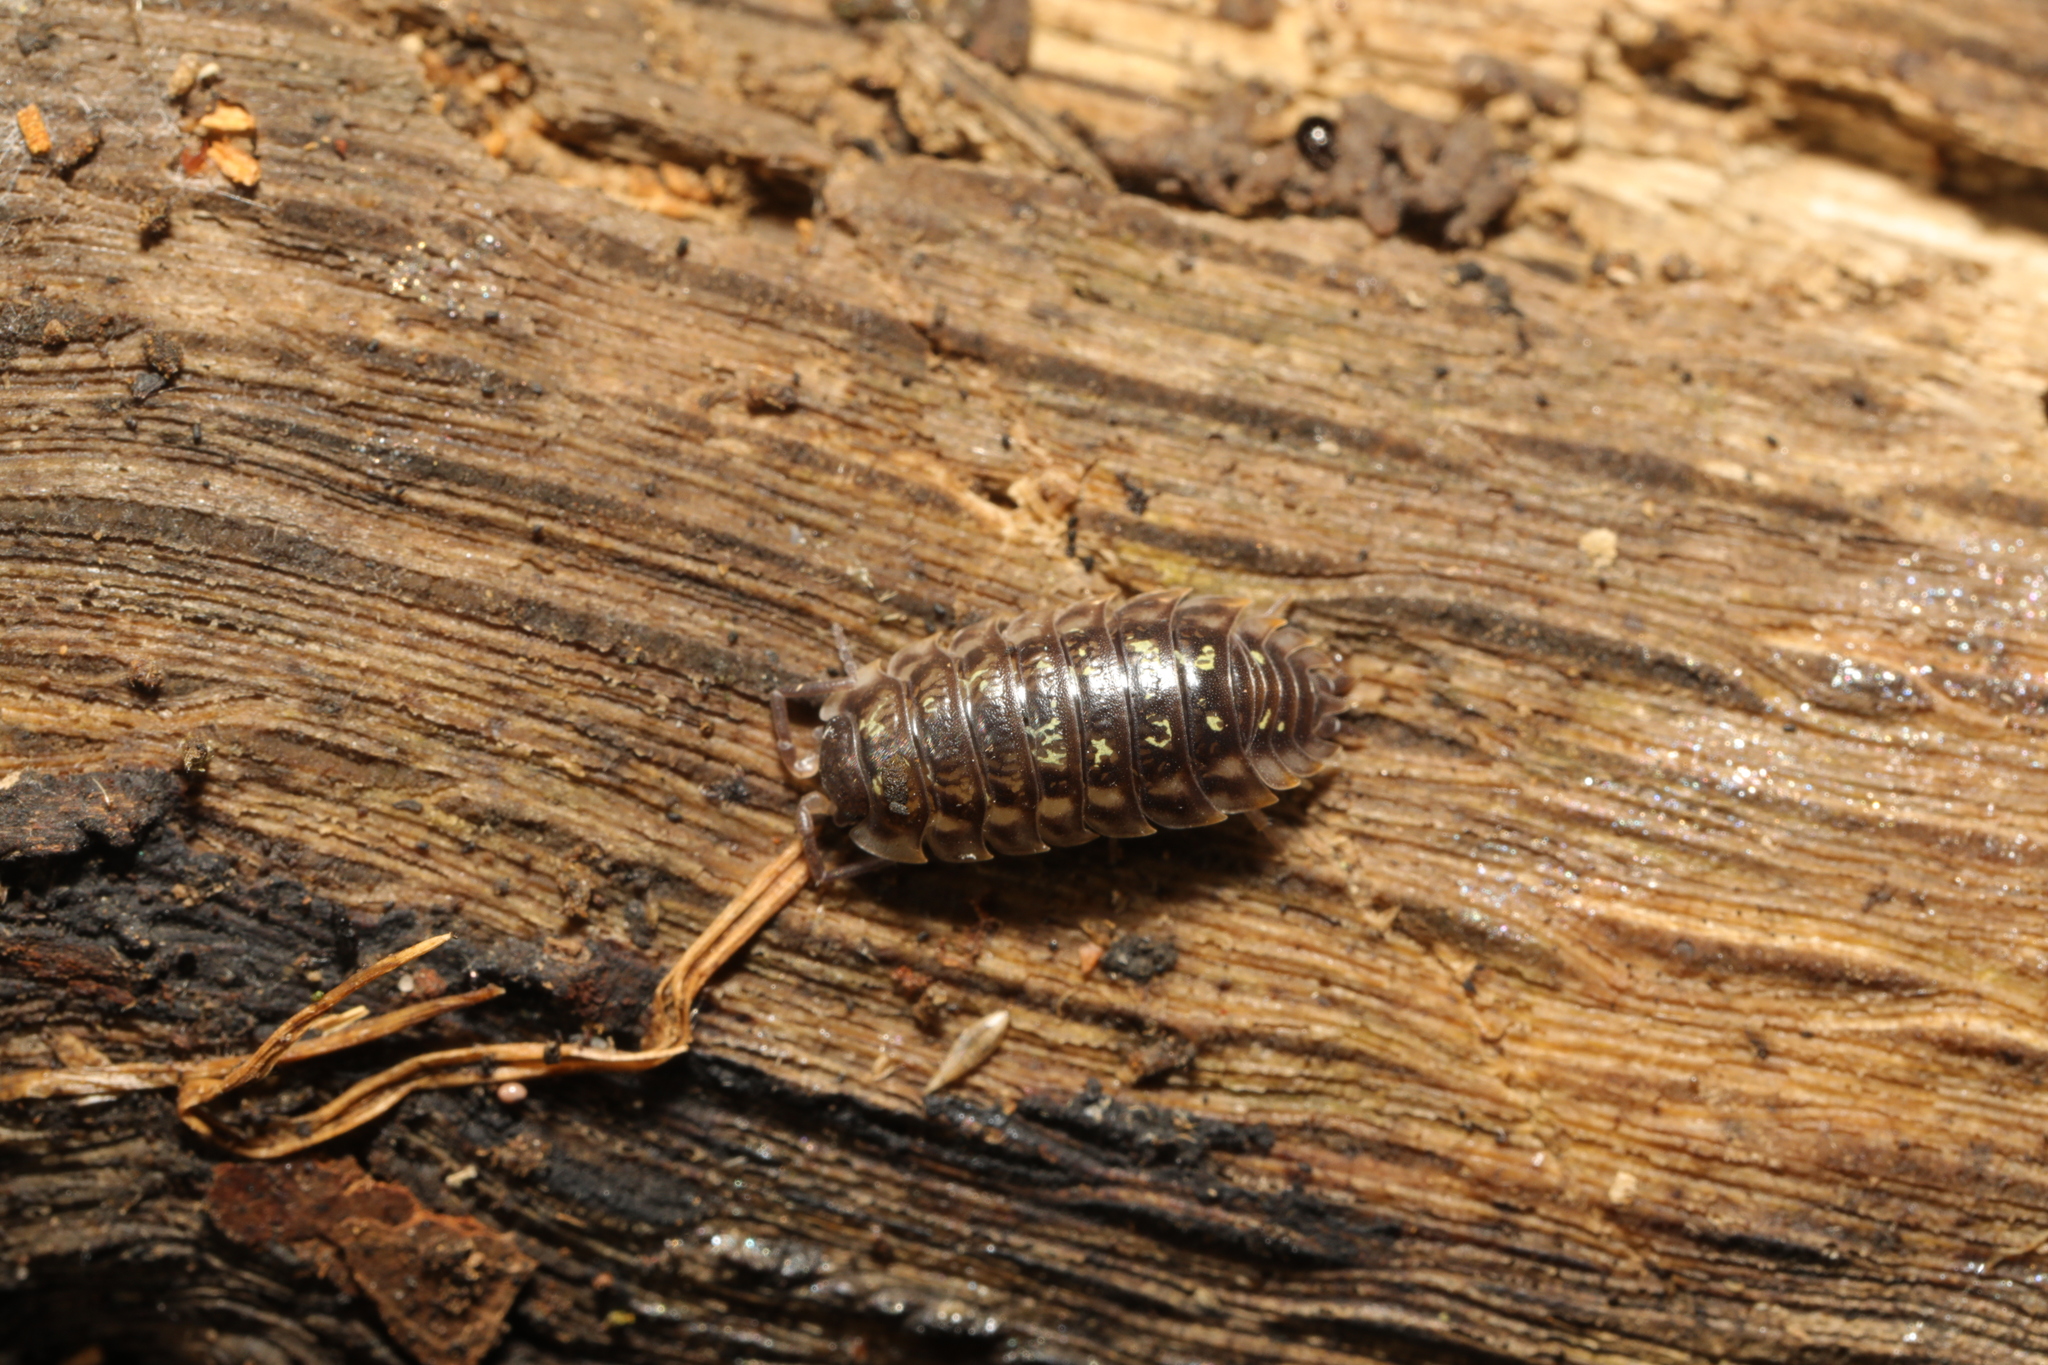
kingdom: Animalia
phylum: Arthropoda
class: Malacostraca
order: Isopoda
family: Oniscidae
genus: Oniscus
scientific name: Oniscus asellus
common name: Common shiny woodlouse
